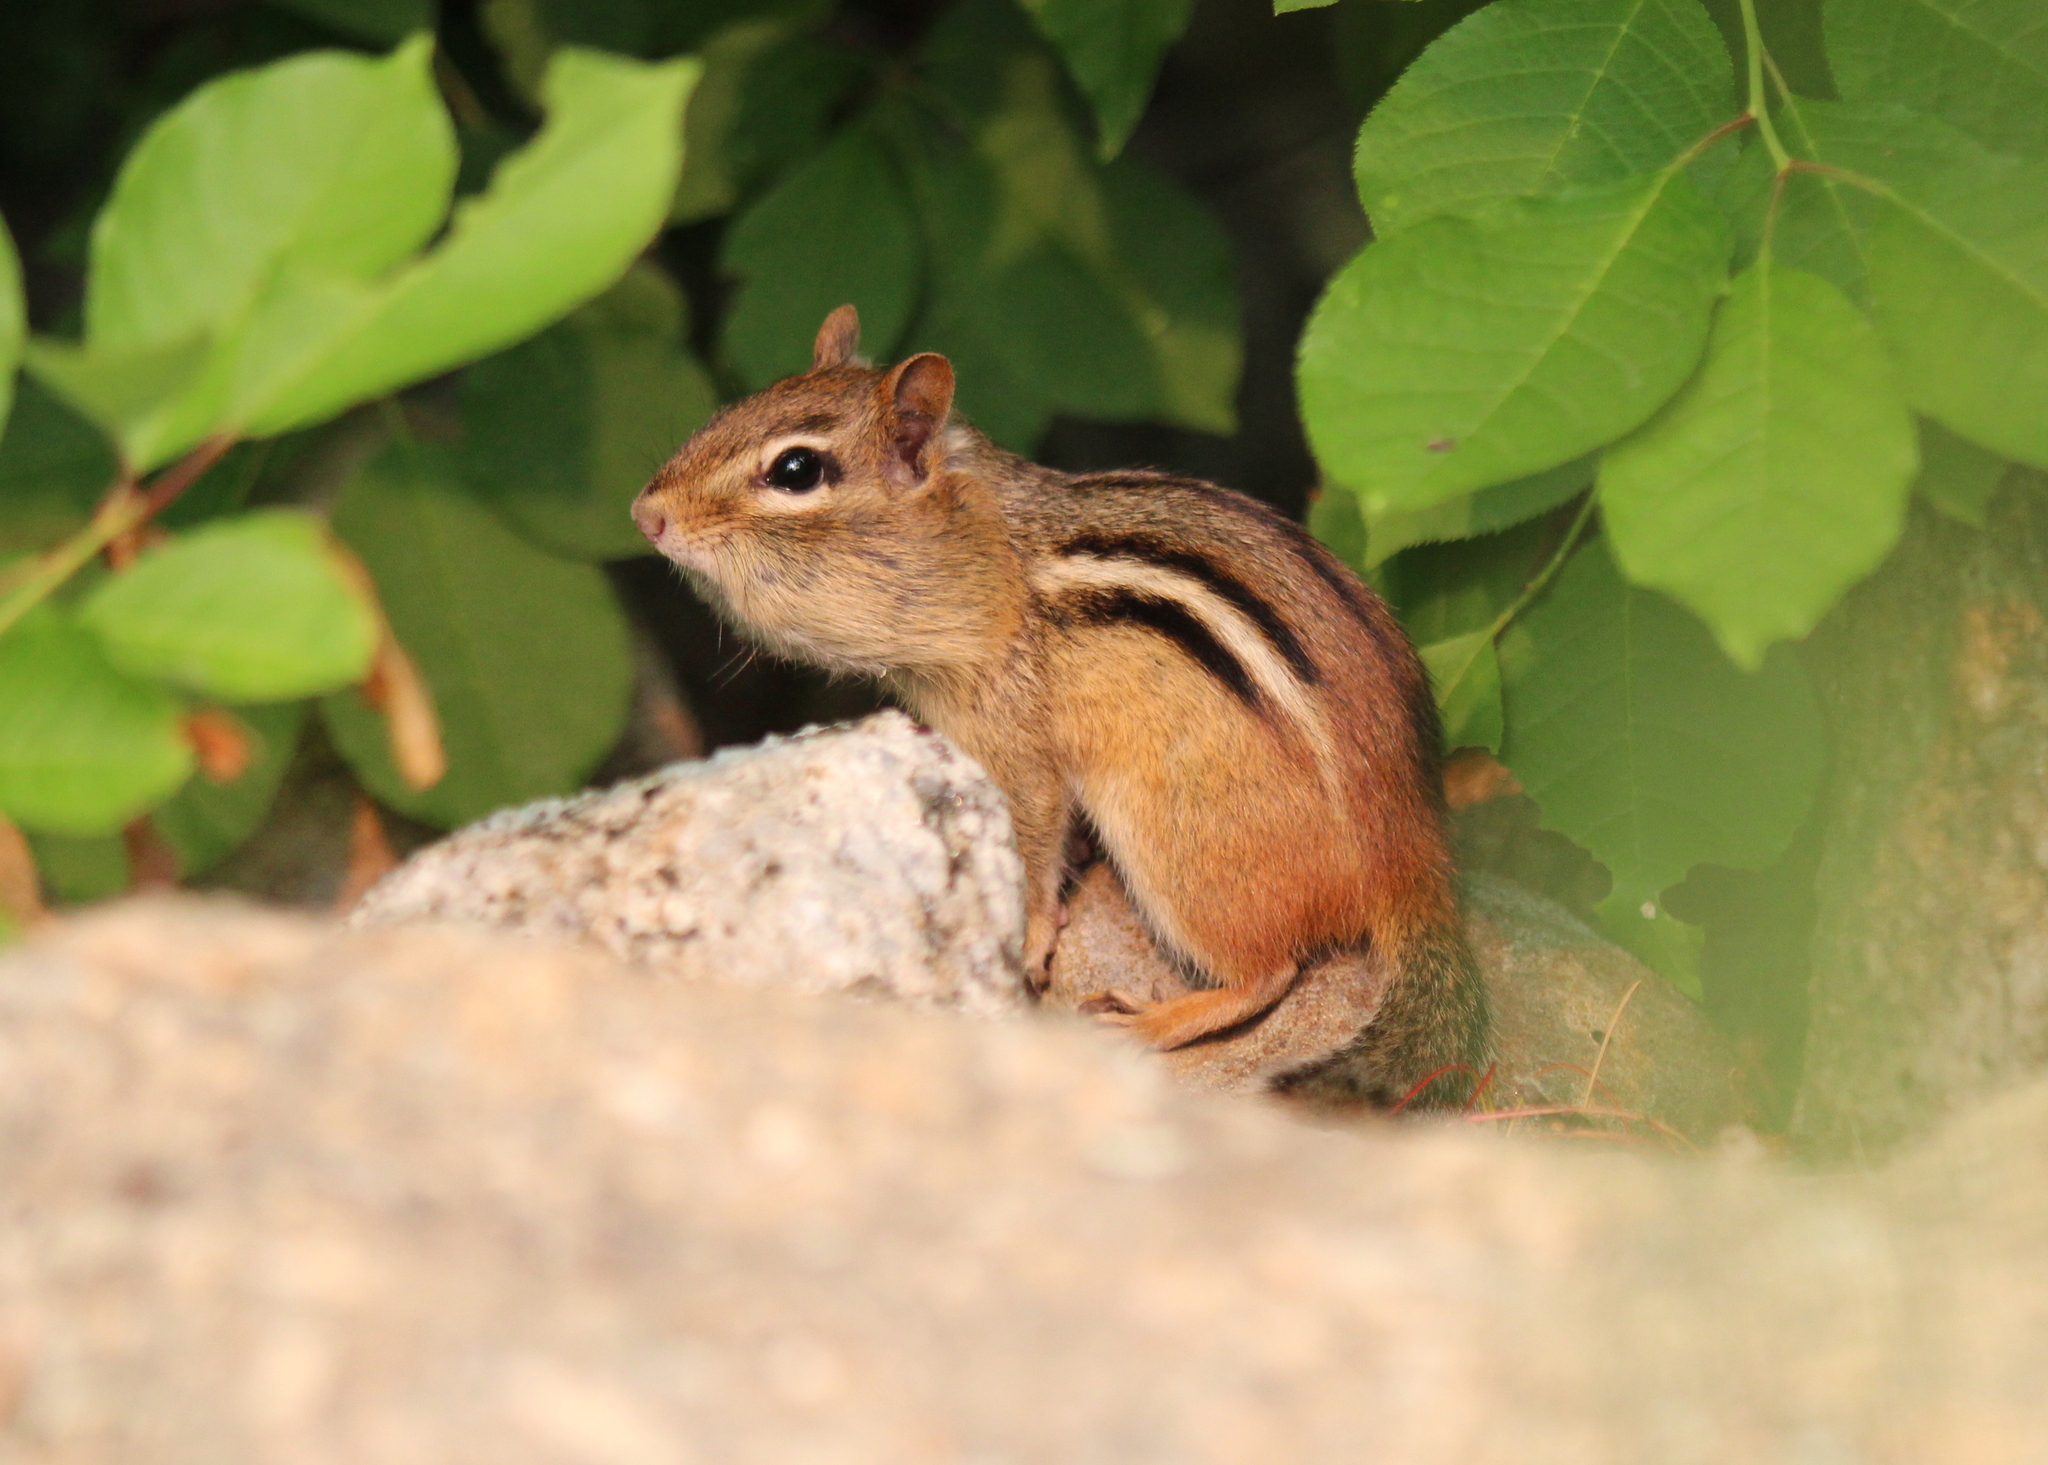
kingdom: Animalia
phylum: Chordata
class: Mammalia
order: Rodentia
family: Sciuridae
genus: Tamias
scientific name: Tamias striatus
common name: Eastern chipmunk
